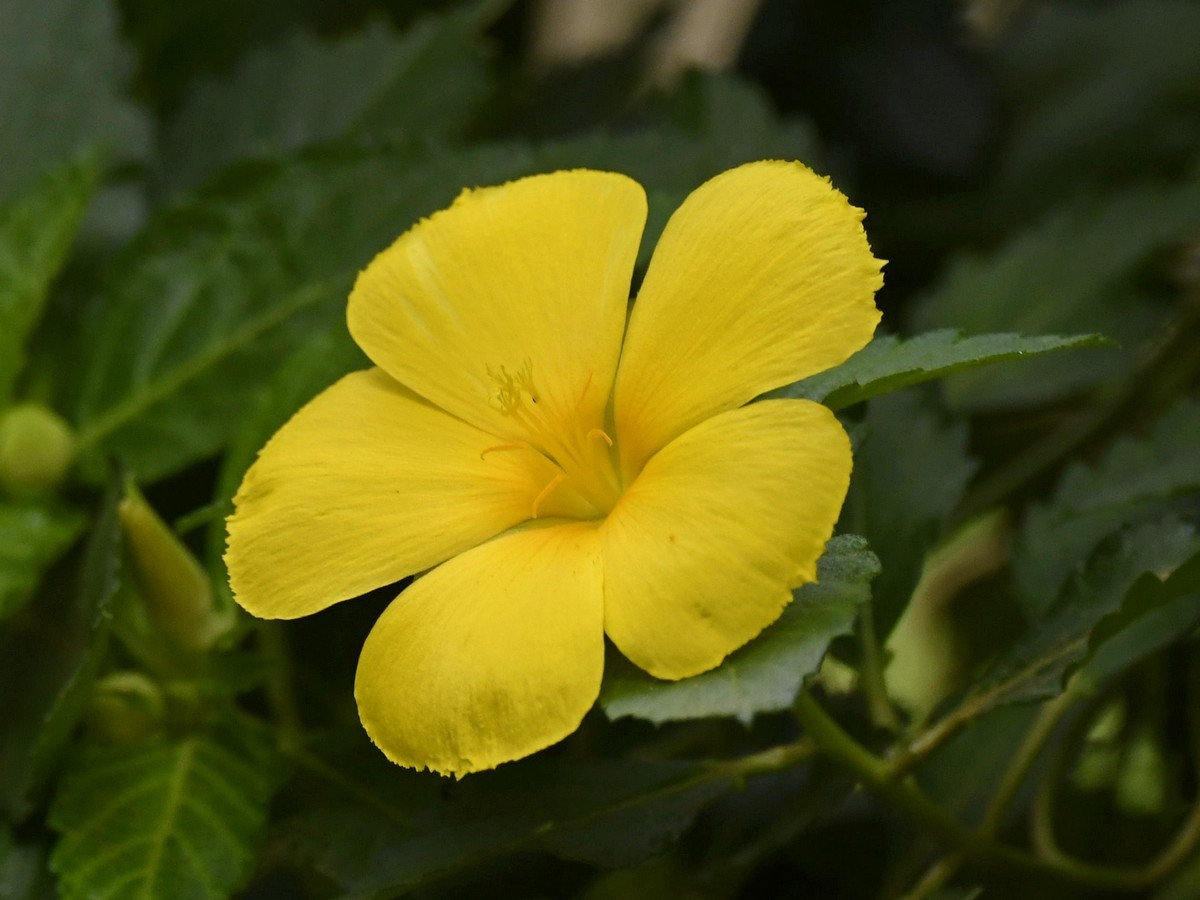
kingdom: Plantae
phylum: Tracheophyta
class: Magnoliopsida
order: Malpighiales
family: Turneraceae
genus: Turnera
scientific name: Turnera ulmifolia
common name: Ramgoat dashalong
